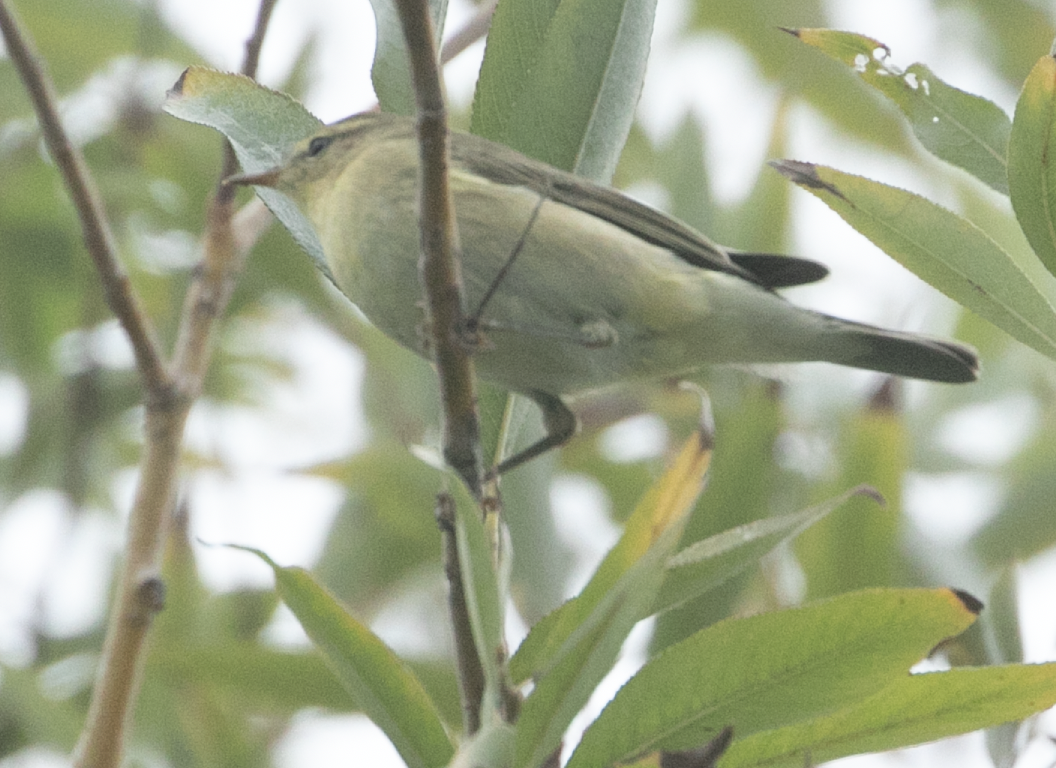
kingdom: Animalia
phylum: Chordata
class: Aves
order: Passeriformes
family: Phylloscopidae
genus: Phylloscopus
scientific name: Phylloscopus trochilus
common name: Willow warbler
